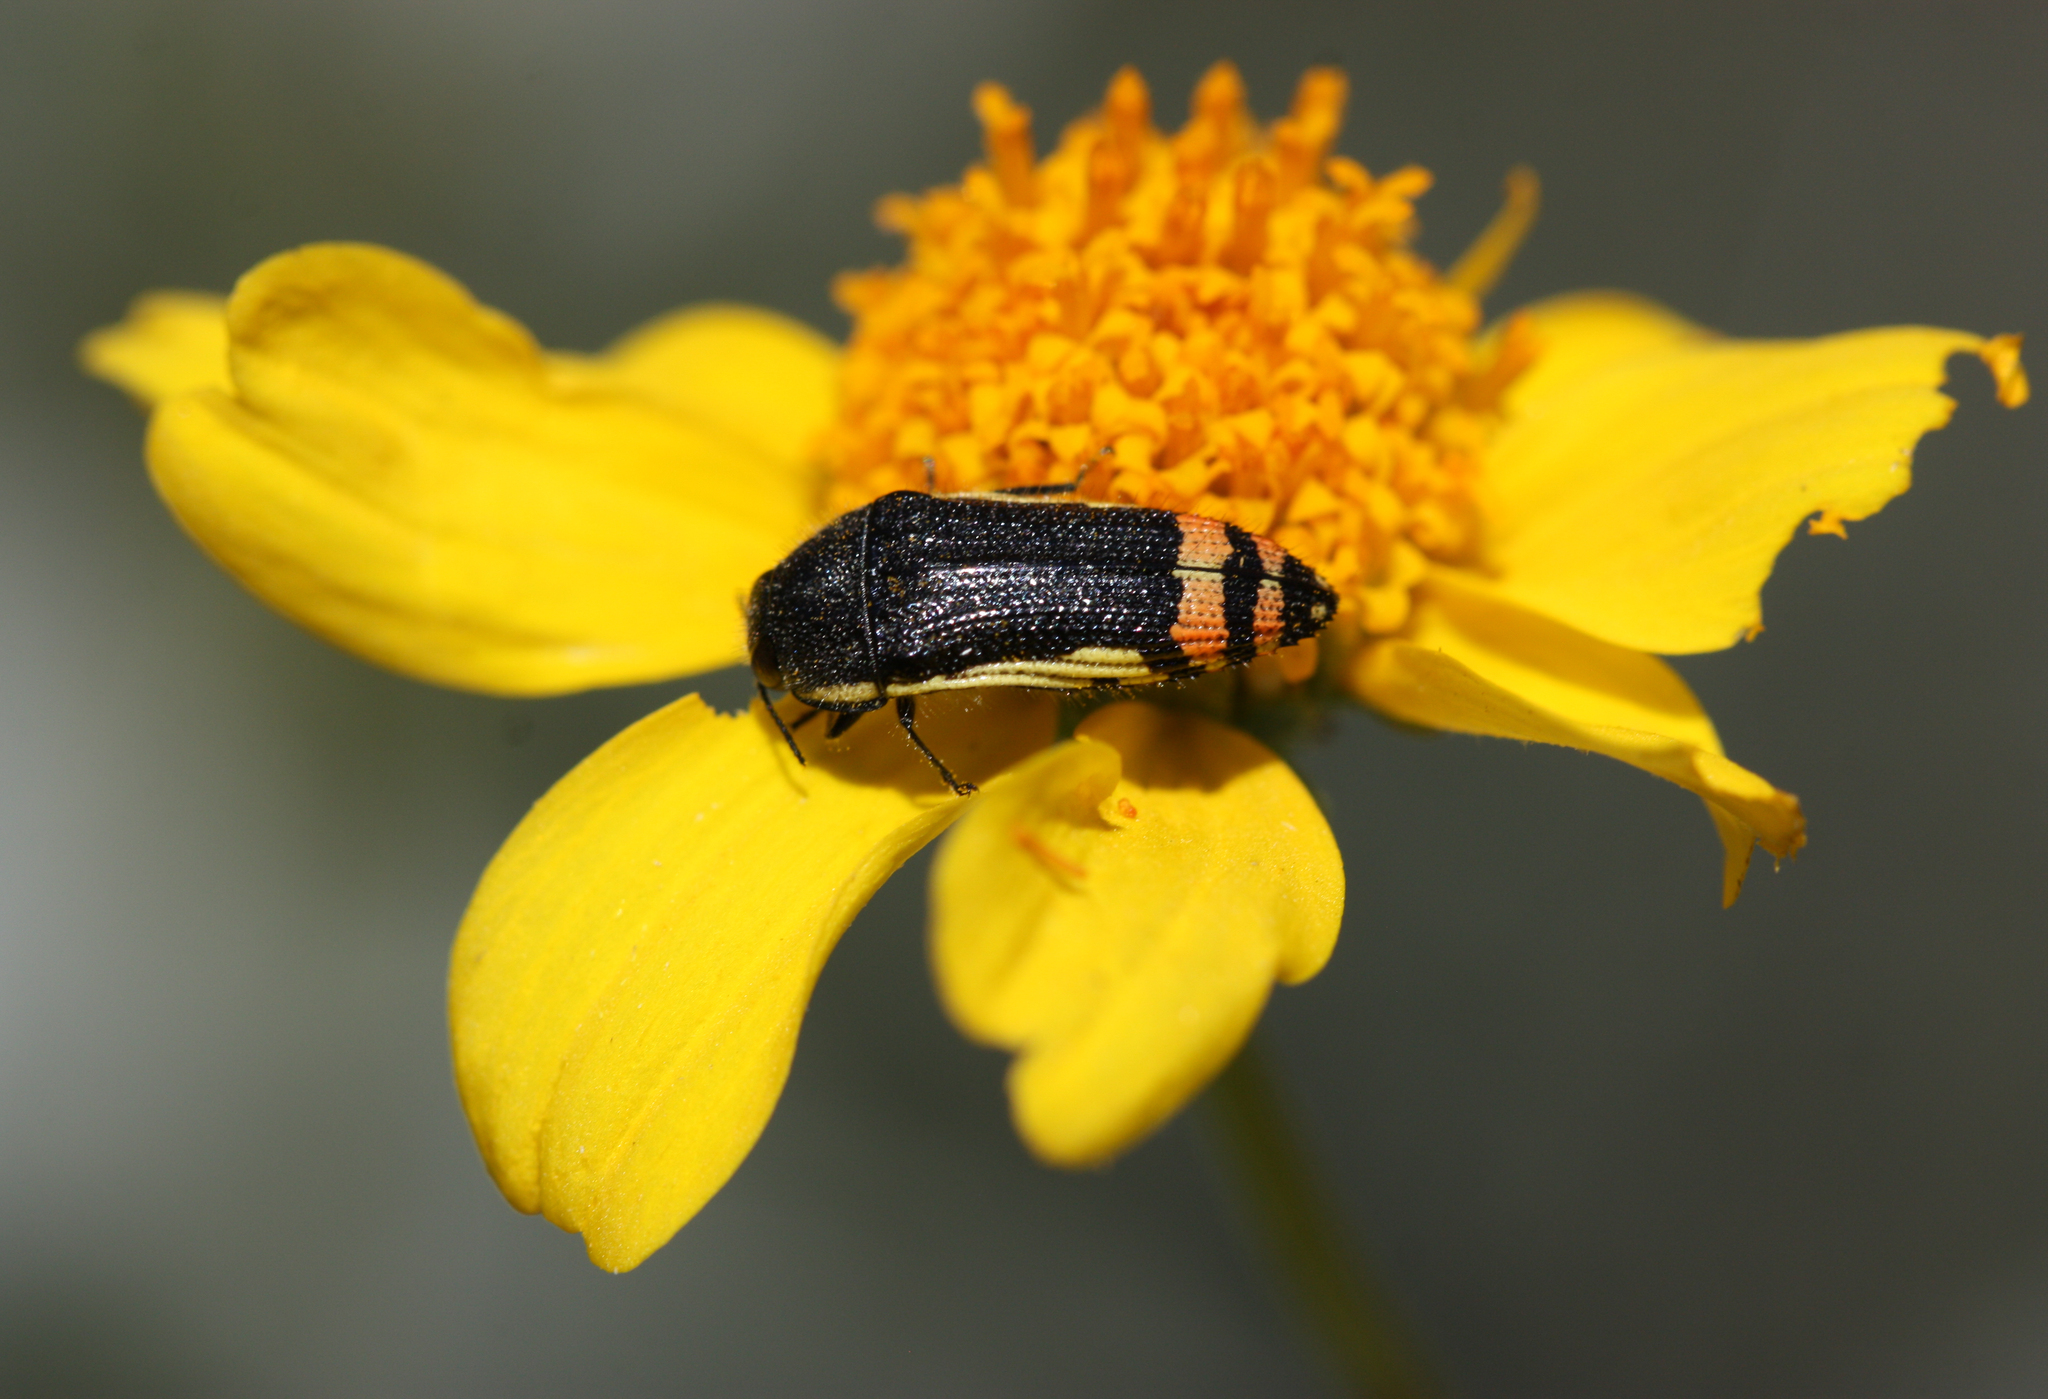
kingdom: Animalia
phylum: Arthropoda
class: Insecta
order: Coleoptera
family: Buprestidae
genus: Acmaeodera
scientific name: Acmaeodera flavomarginata
